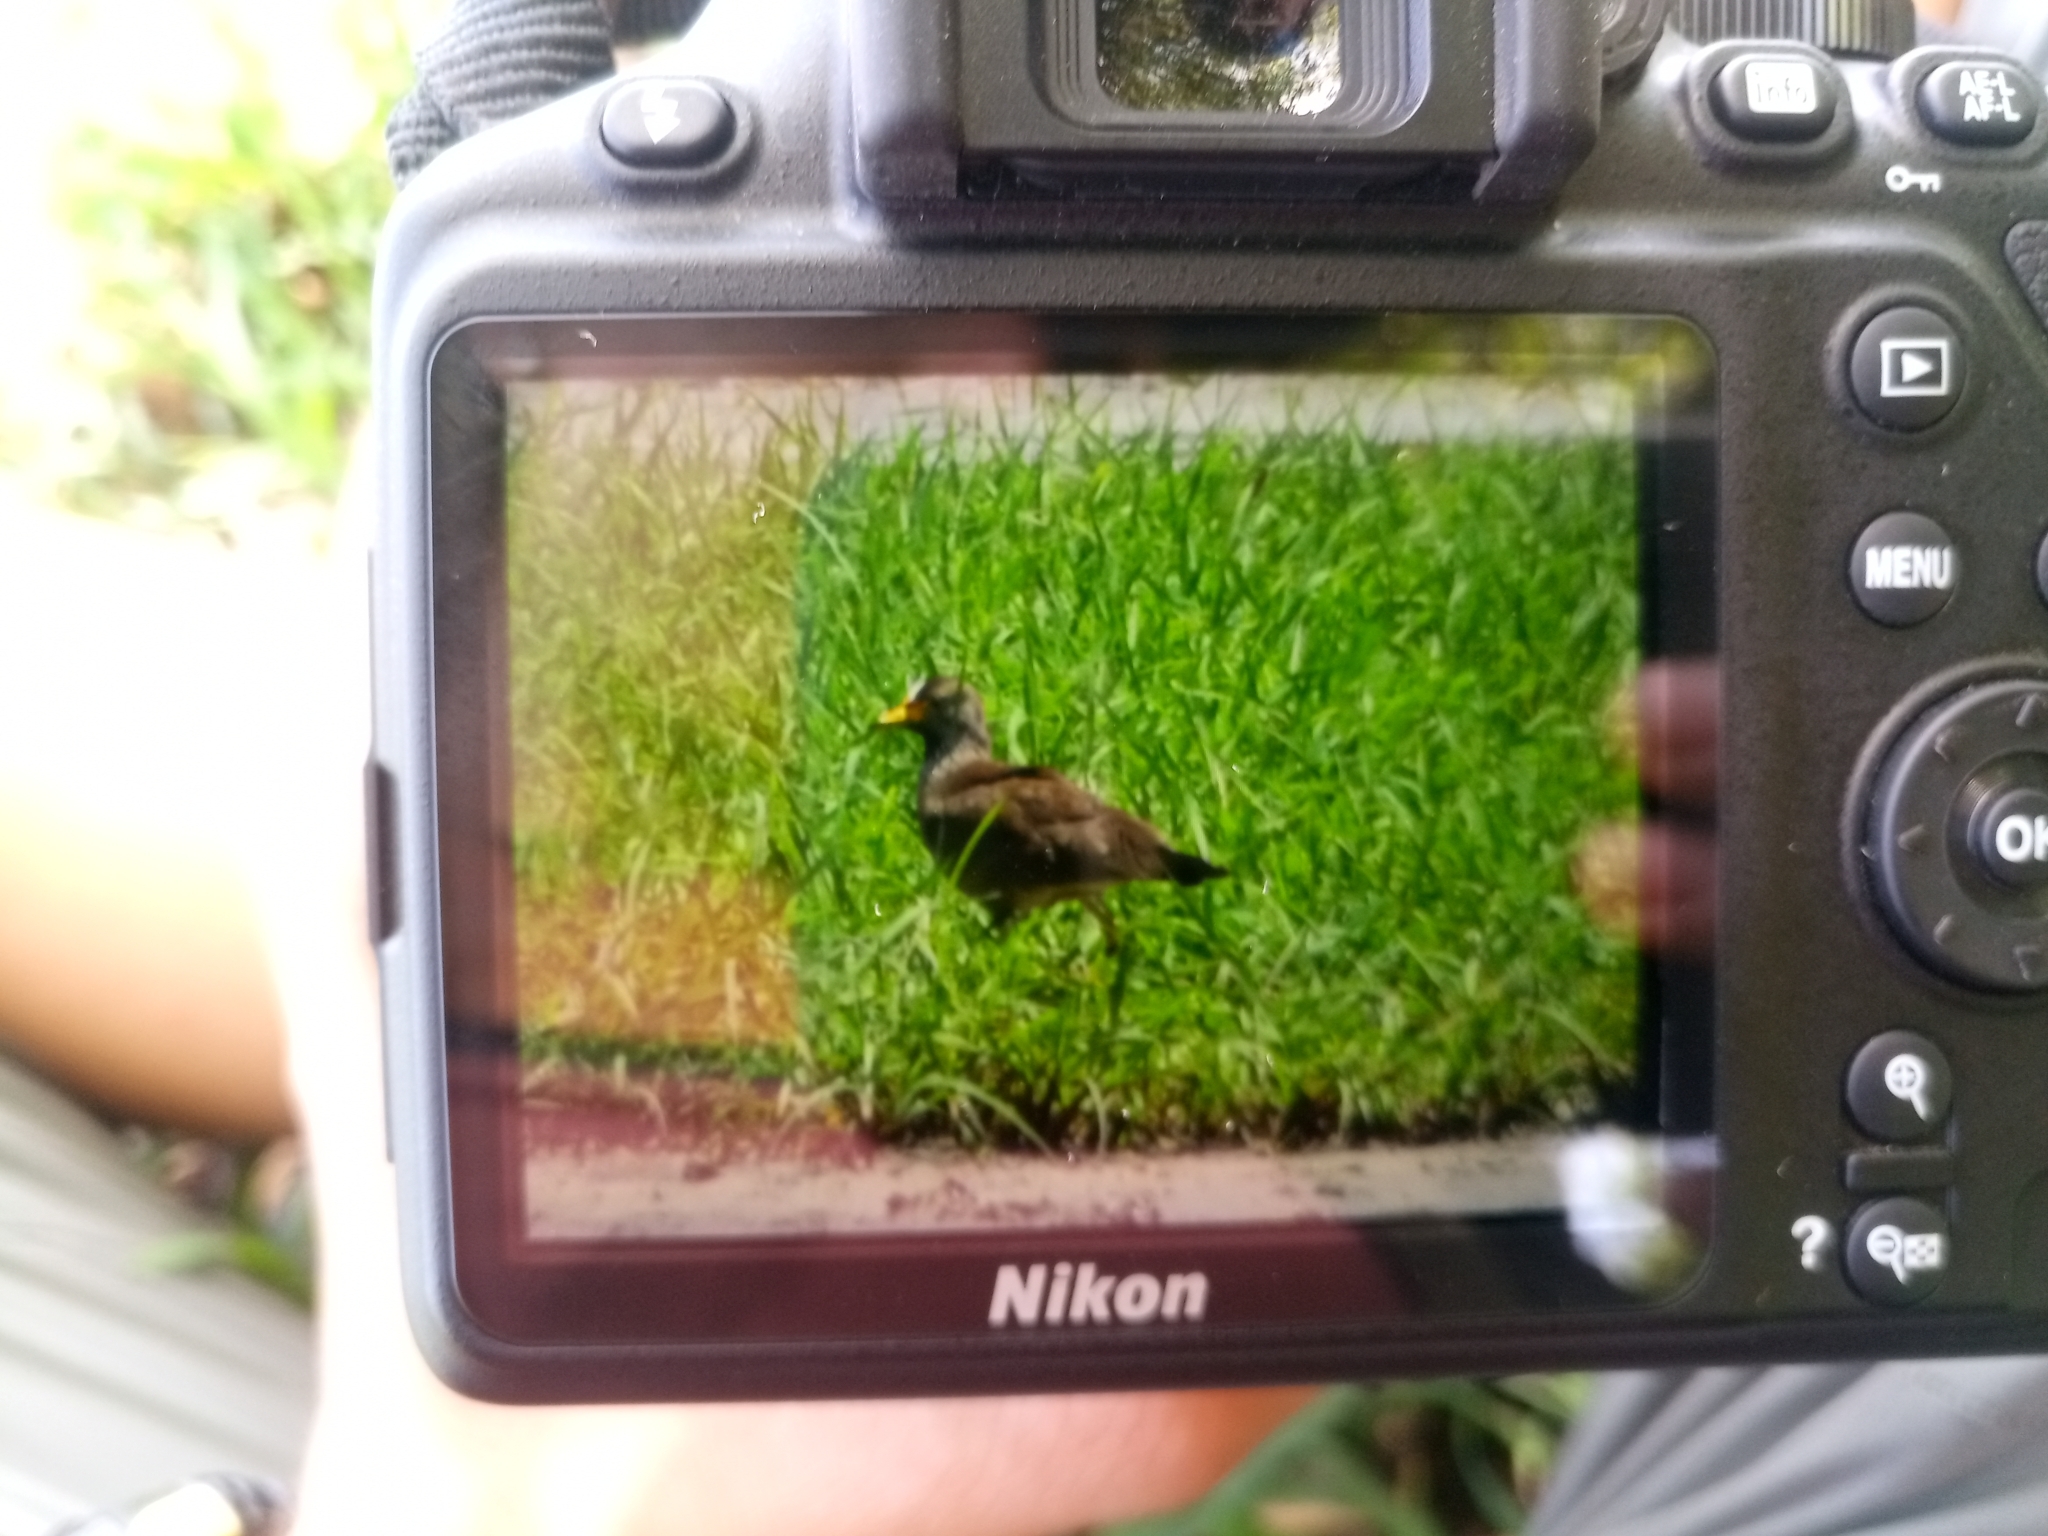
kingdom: Animalia
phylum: Chordata
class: Aves
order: Charadriiformes
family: Charadriidae
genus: Vanellus
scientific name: Vanellus senegallus
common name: African wattled lapwing
